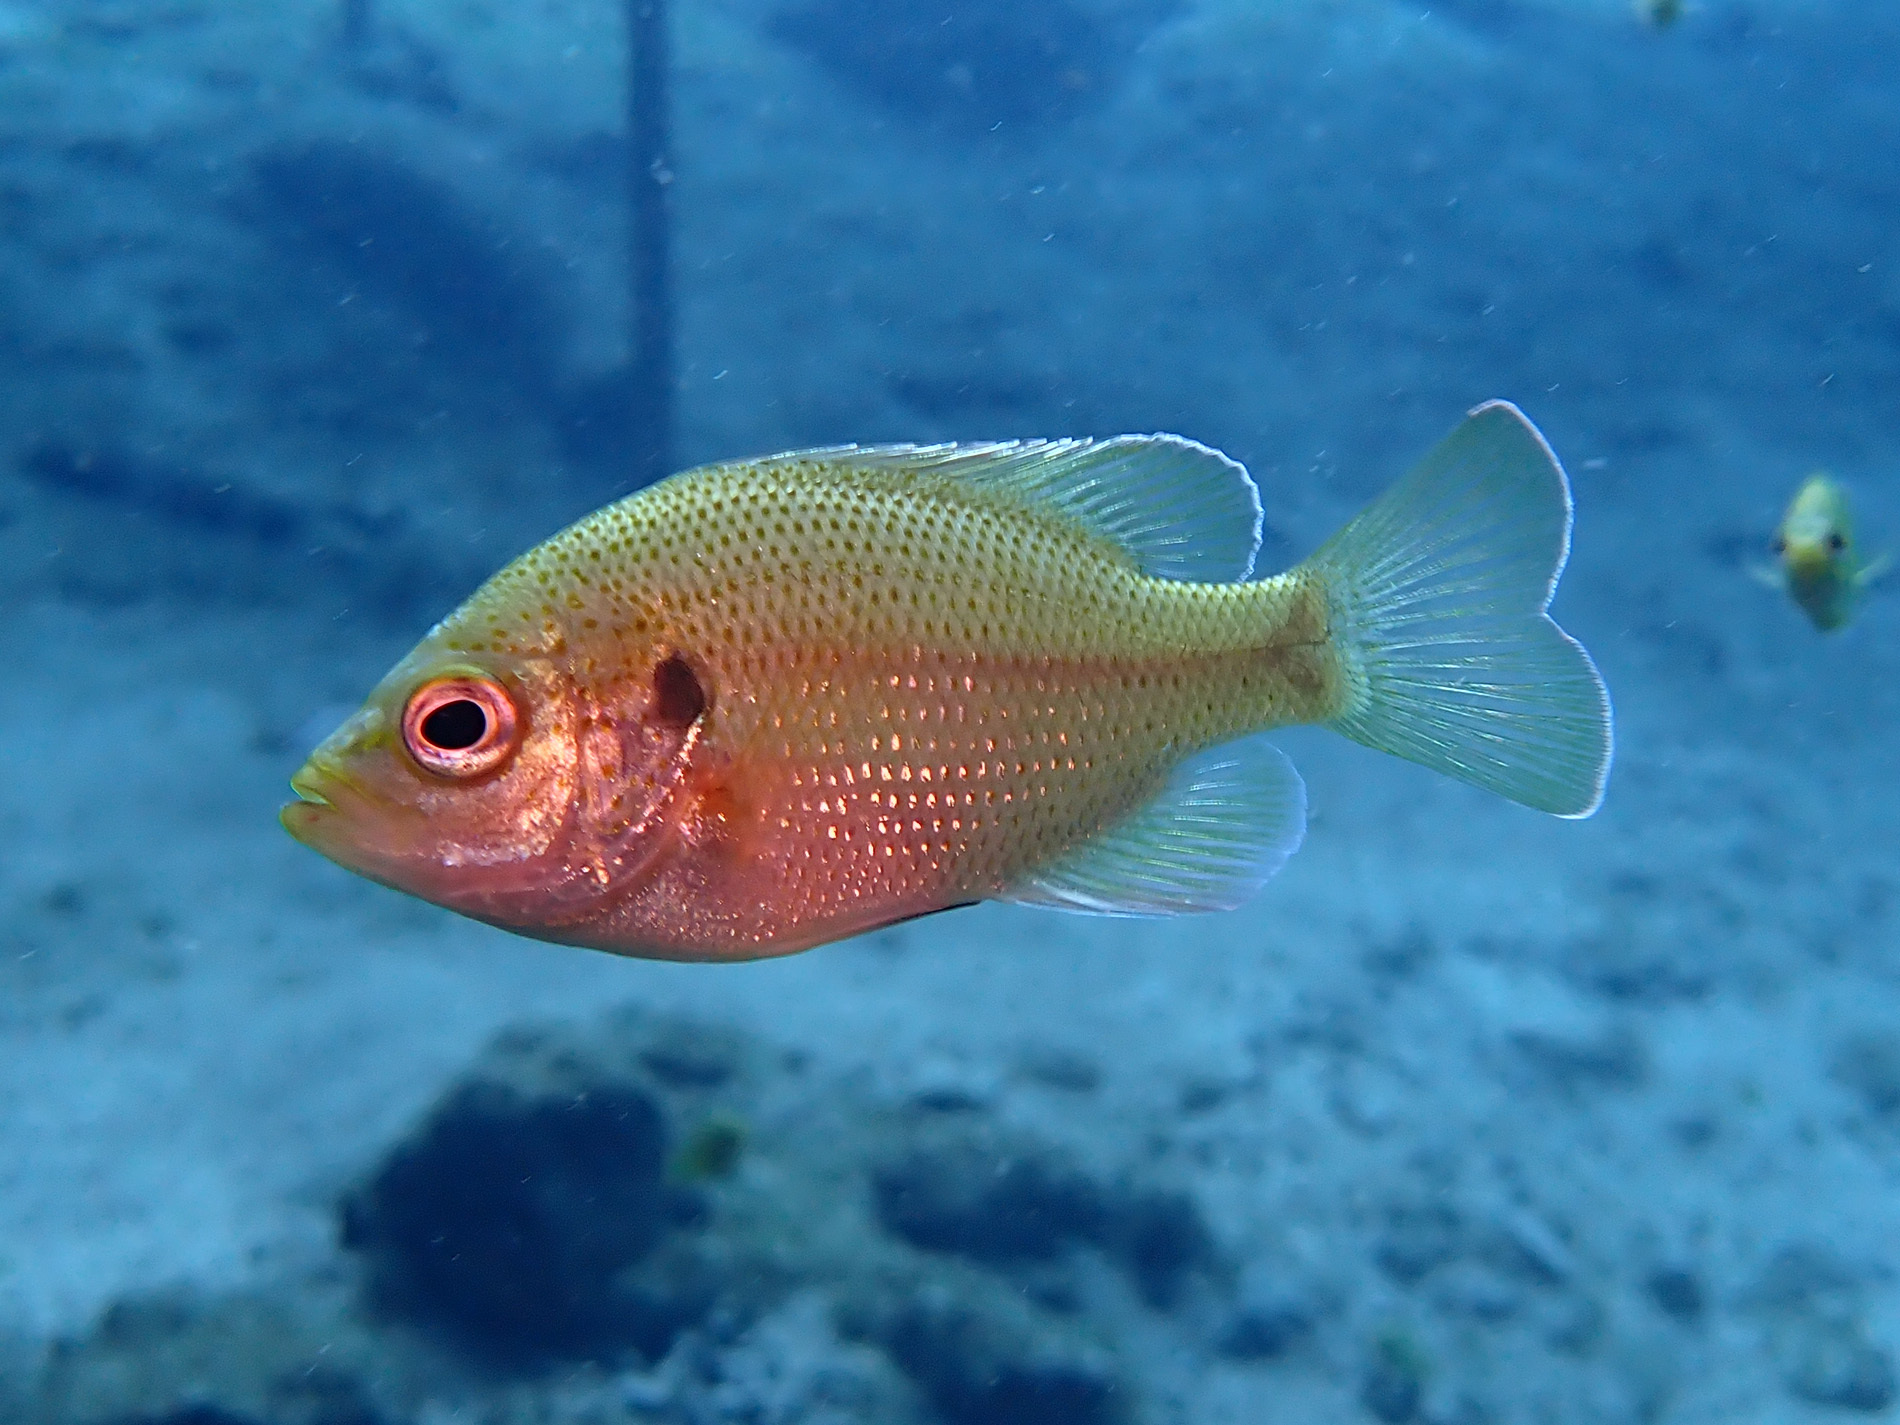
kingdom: Animalia
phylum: Chordata
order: Perciformes
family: Centrarchidae
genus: Lepomis
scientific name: Lepomis punctatus
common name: Spotted sunfish
